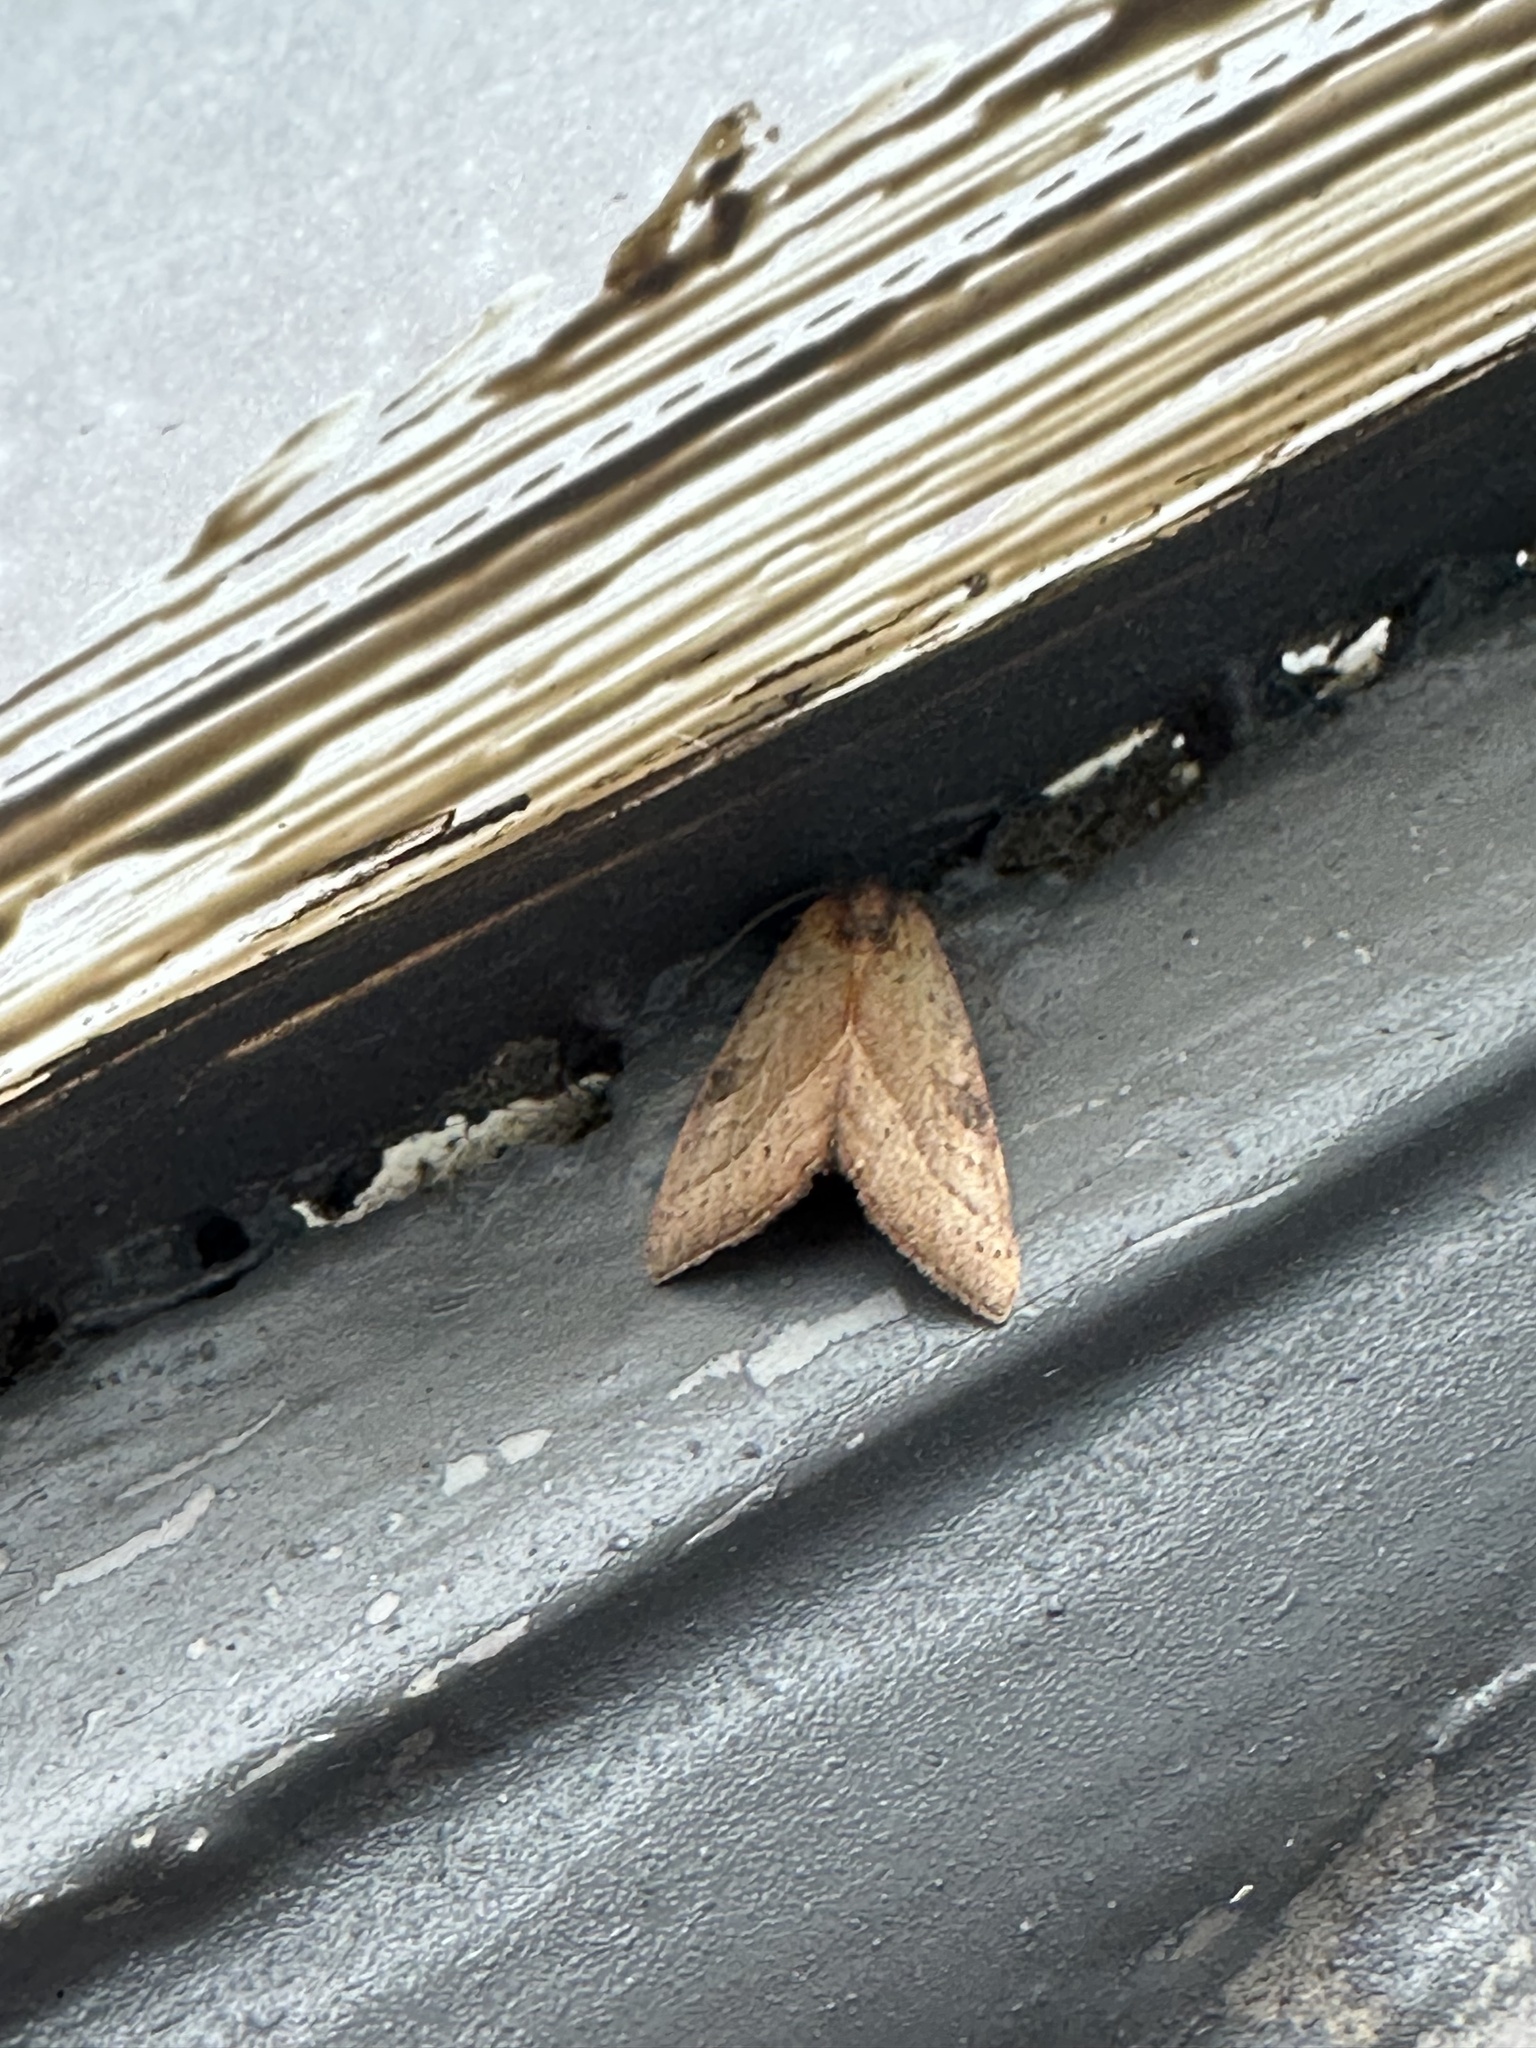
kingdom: Animalia
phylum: Arthropoda
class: Insecta
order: Lepidoptera
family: Noctuidae
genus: Galgula
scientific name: Galgula partita
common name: Wedgeling
